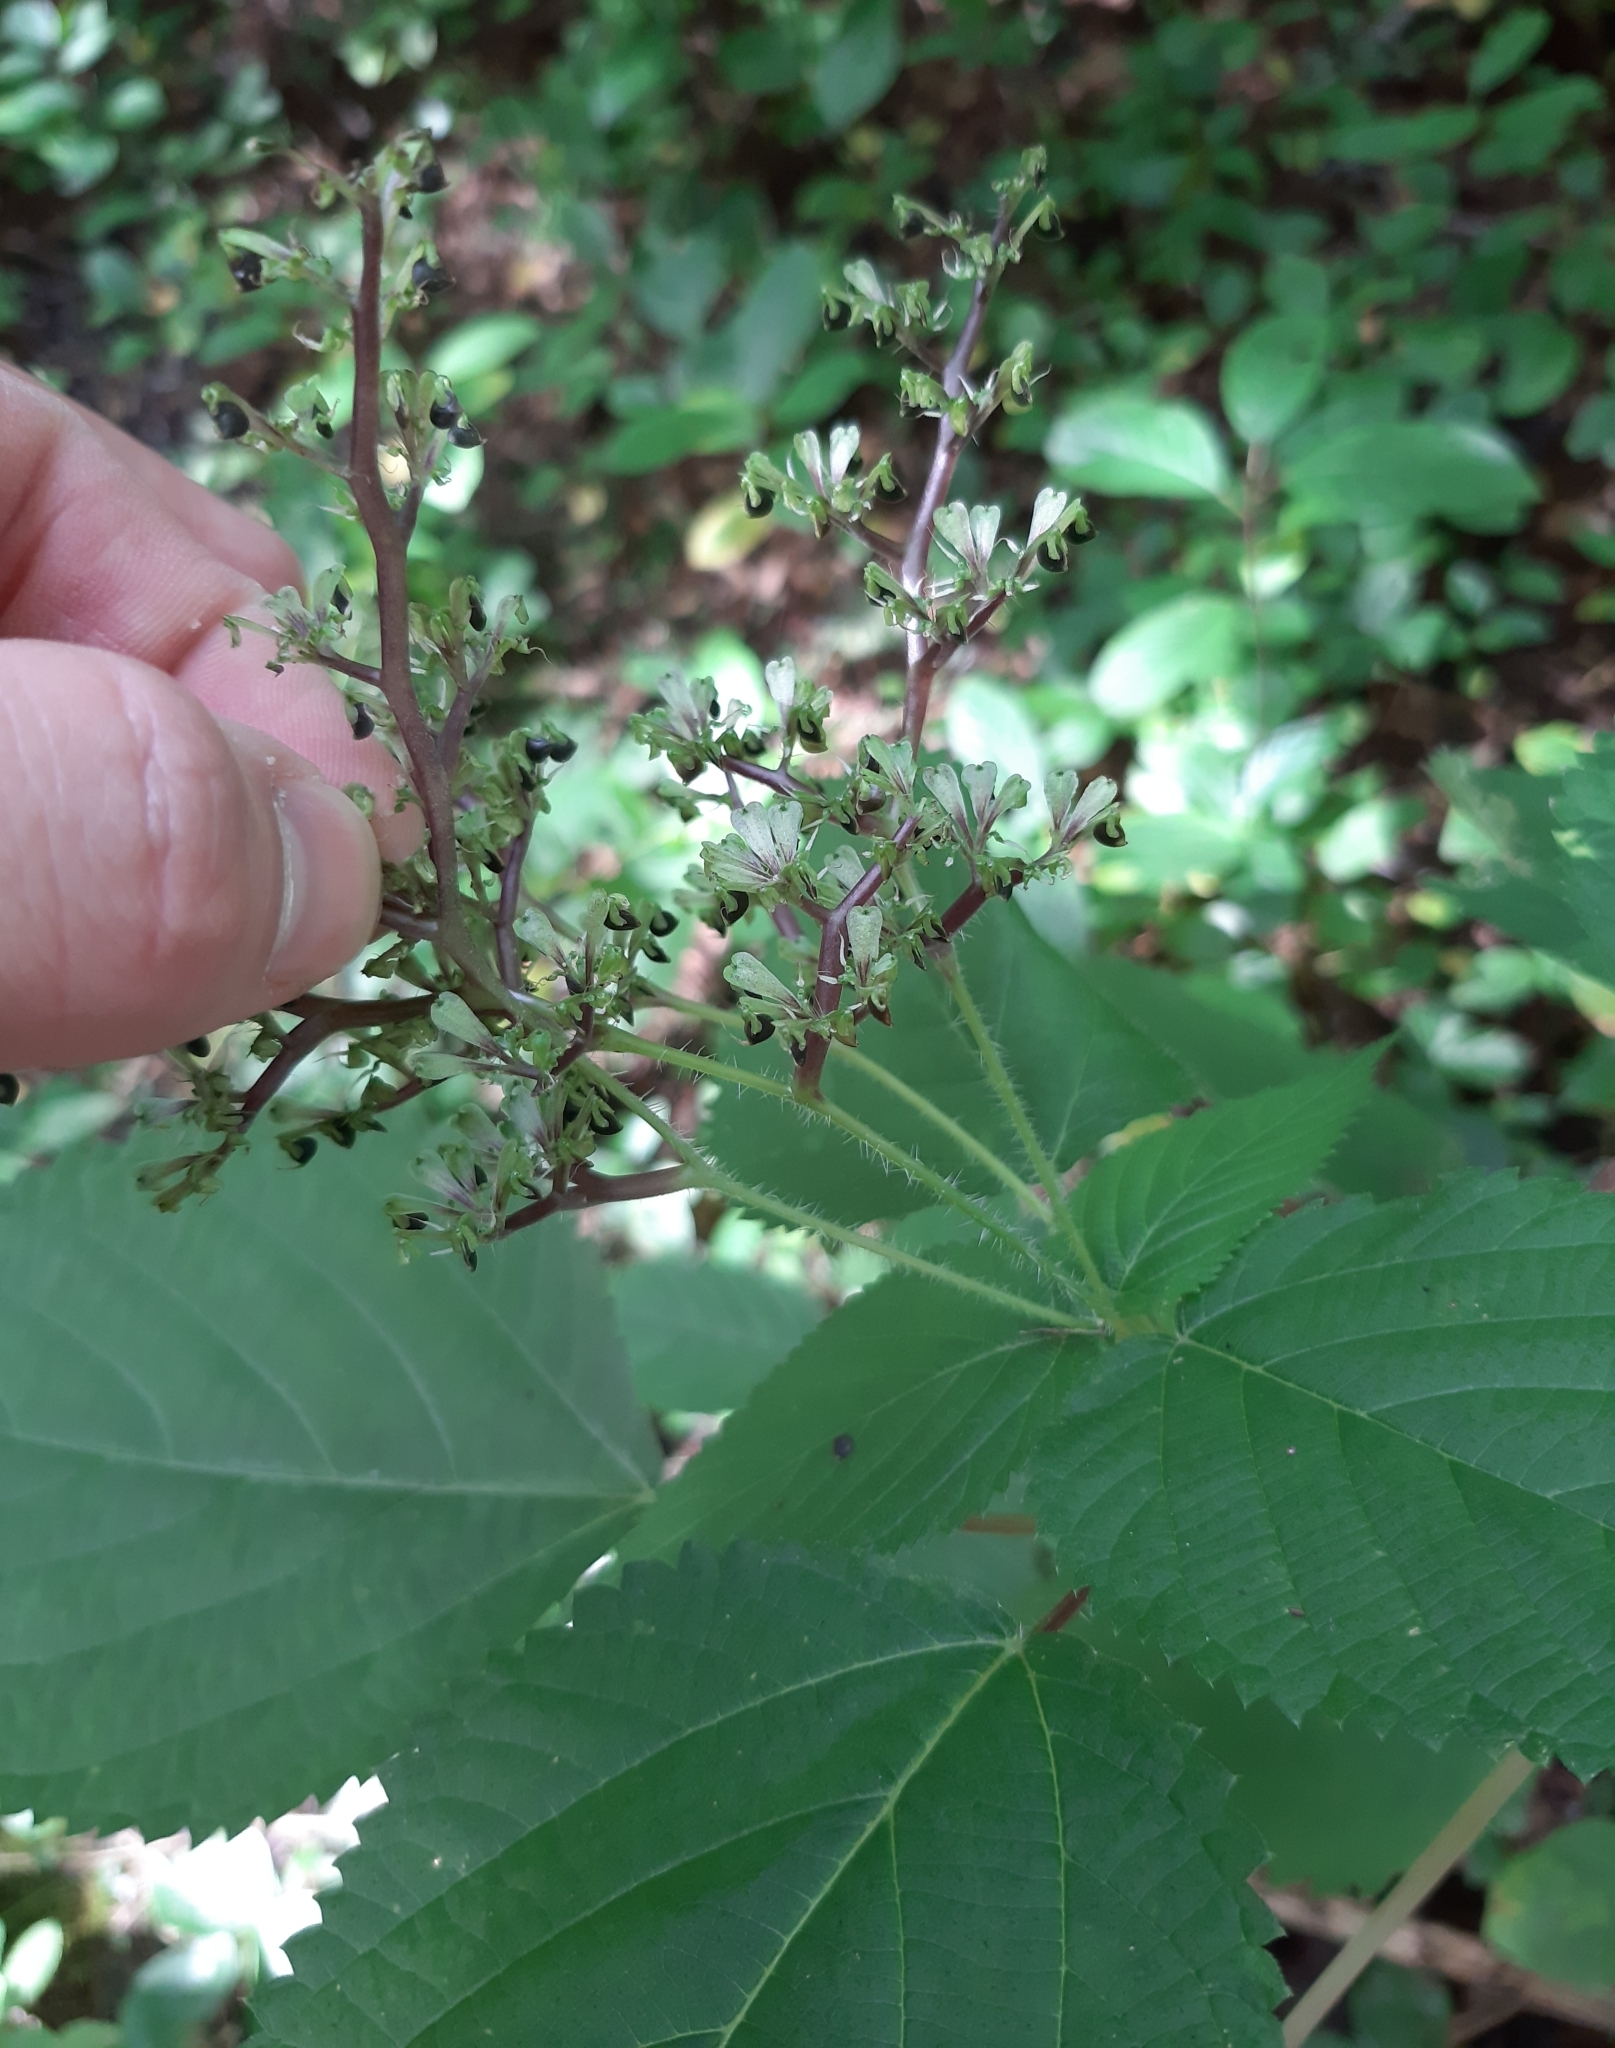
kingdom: Plantae
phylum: Tracheophyta
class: Magnoliopsida
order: Rosales
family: Urticaceae
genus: Laportea
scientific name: Laportea canadensis
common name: Canada nettle
